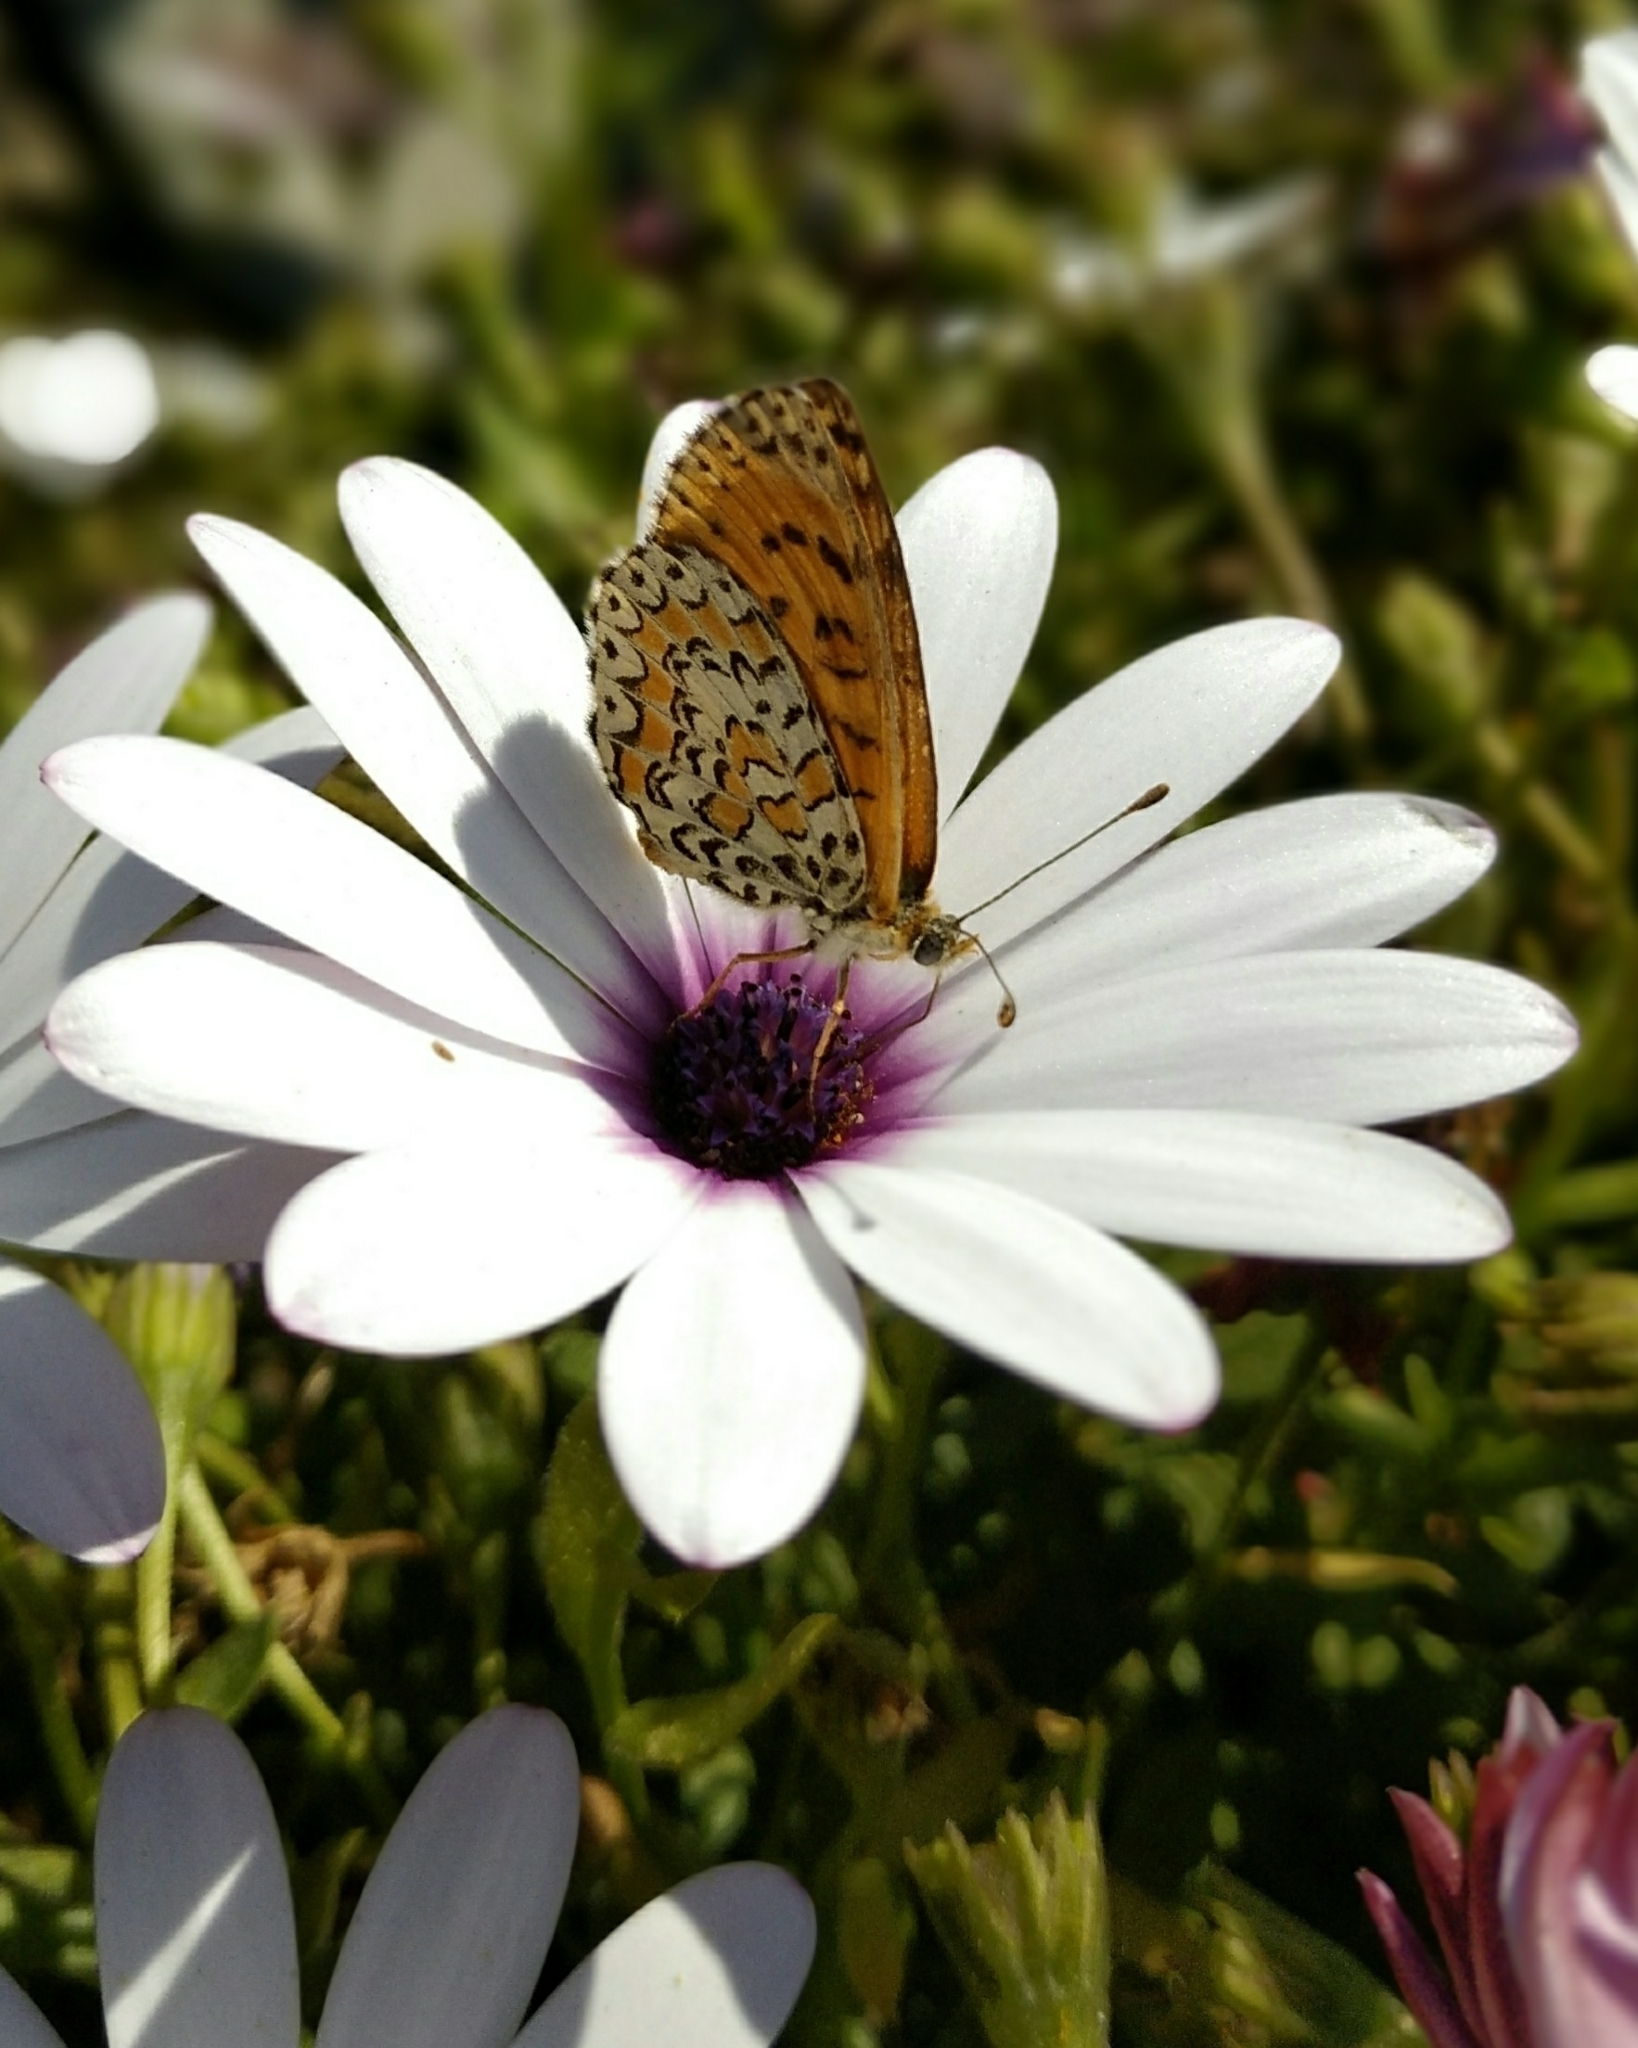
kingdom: Animalia
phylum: Arthropoda
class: Insecta
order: Lepidoptera
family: Nymphalidae
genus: Melitaea
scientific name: Melitaea trivia
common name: Lesser spotted fritillary
